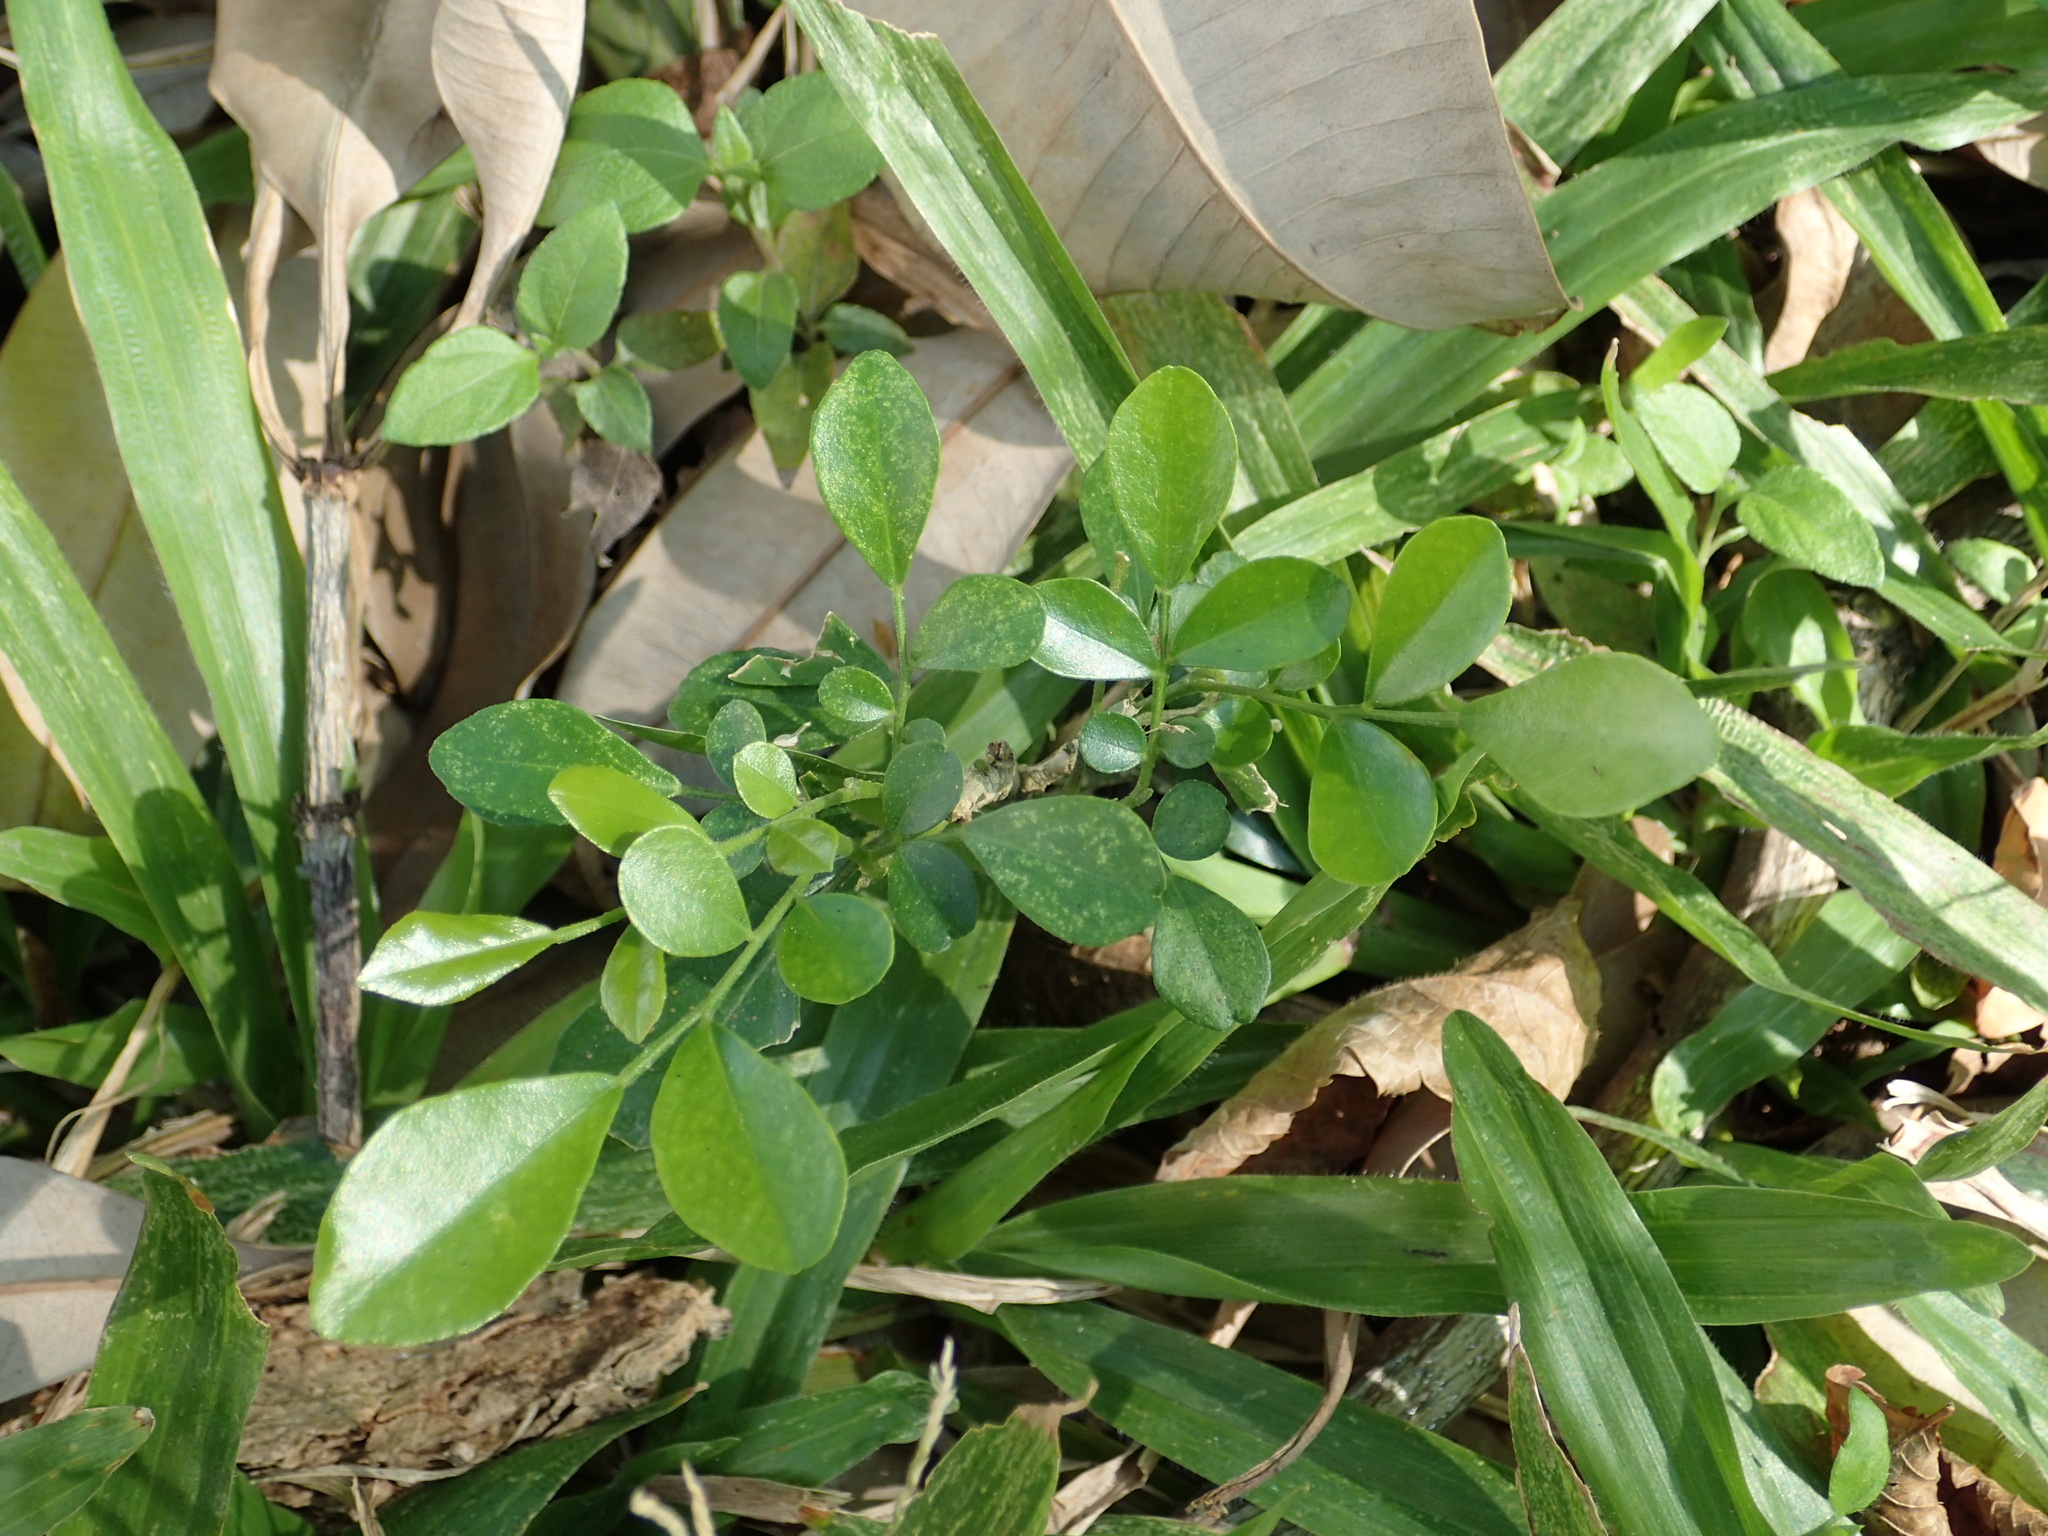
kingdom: Plantae
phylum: Tracheophyta
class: Magnoliopsida
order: Sapindales
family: Rutaceae
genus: Murraya
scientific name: Murraya paniculata
